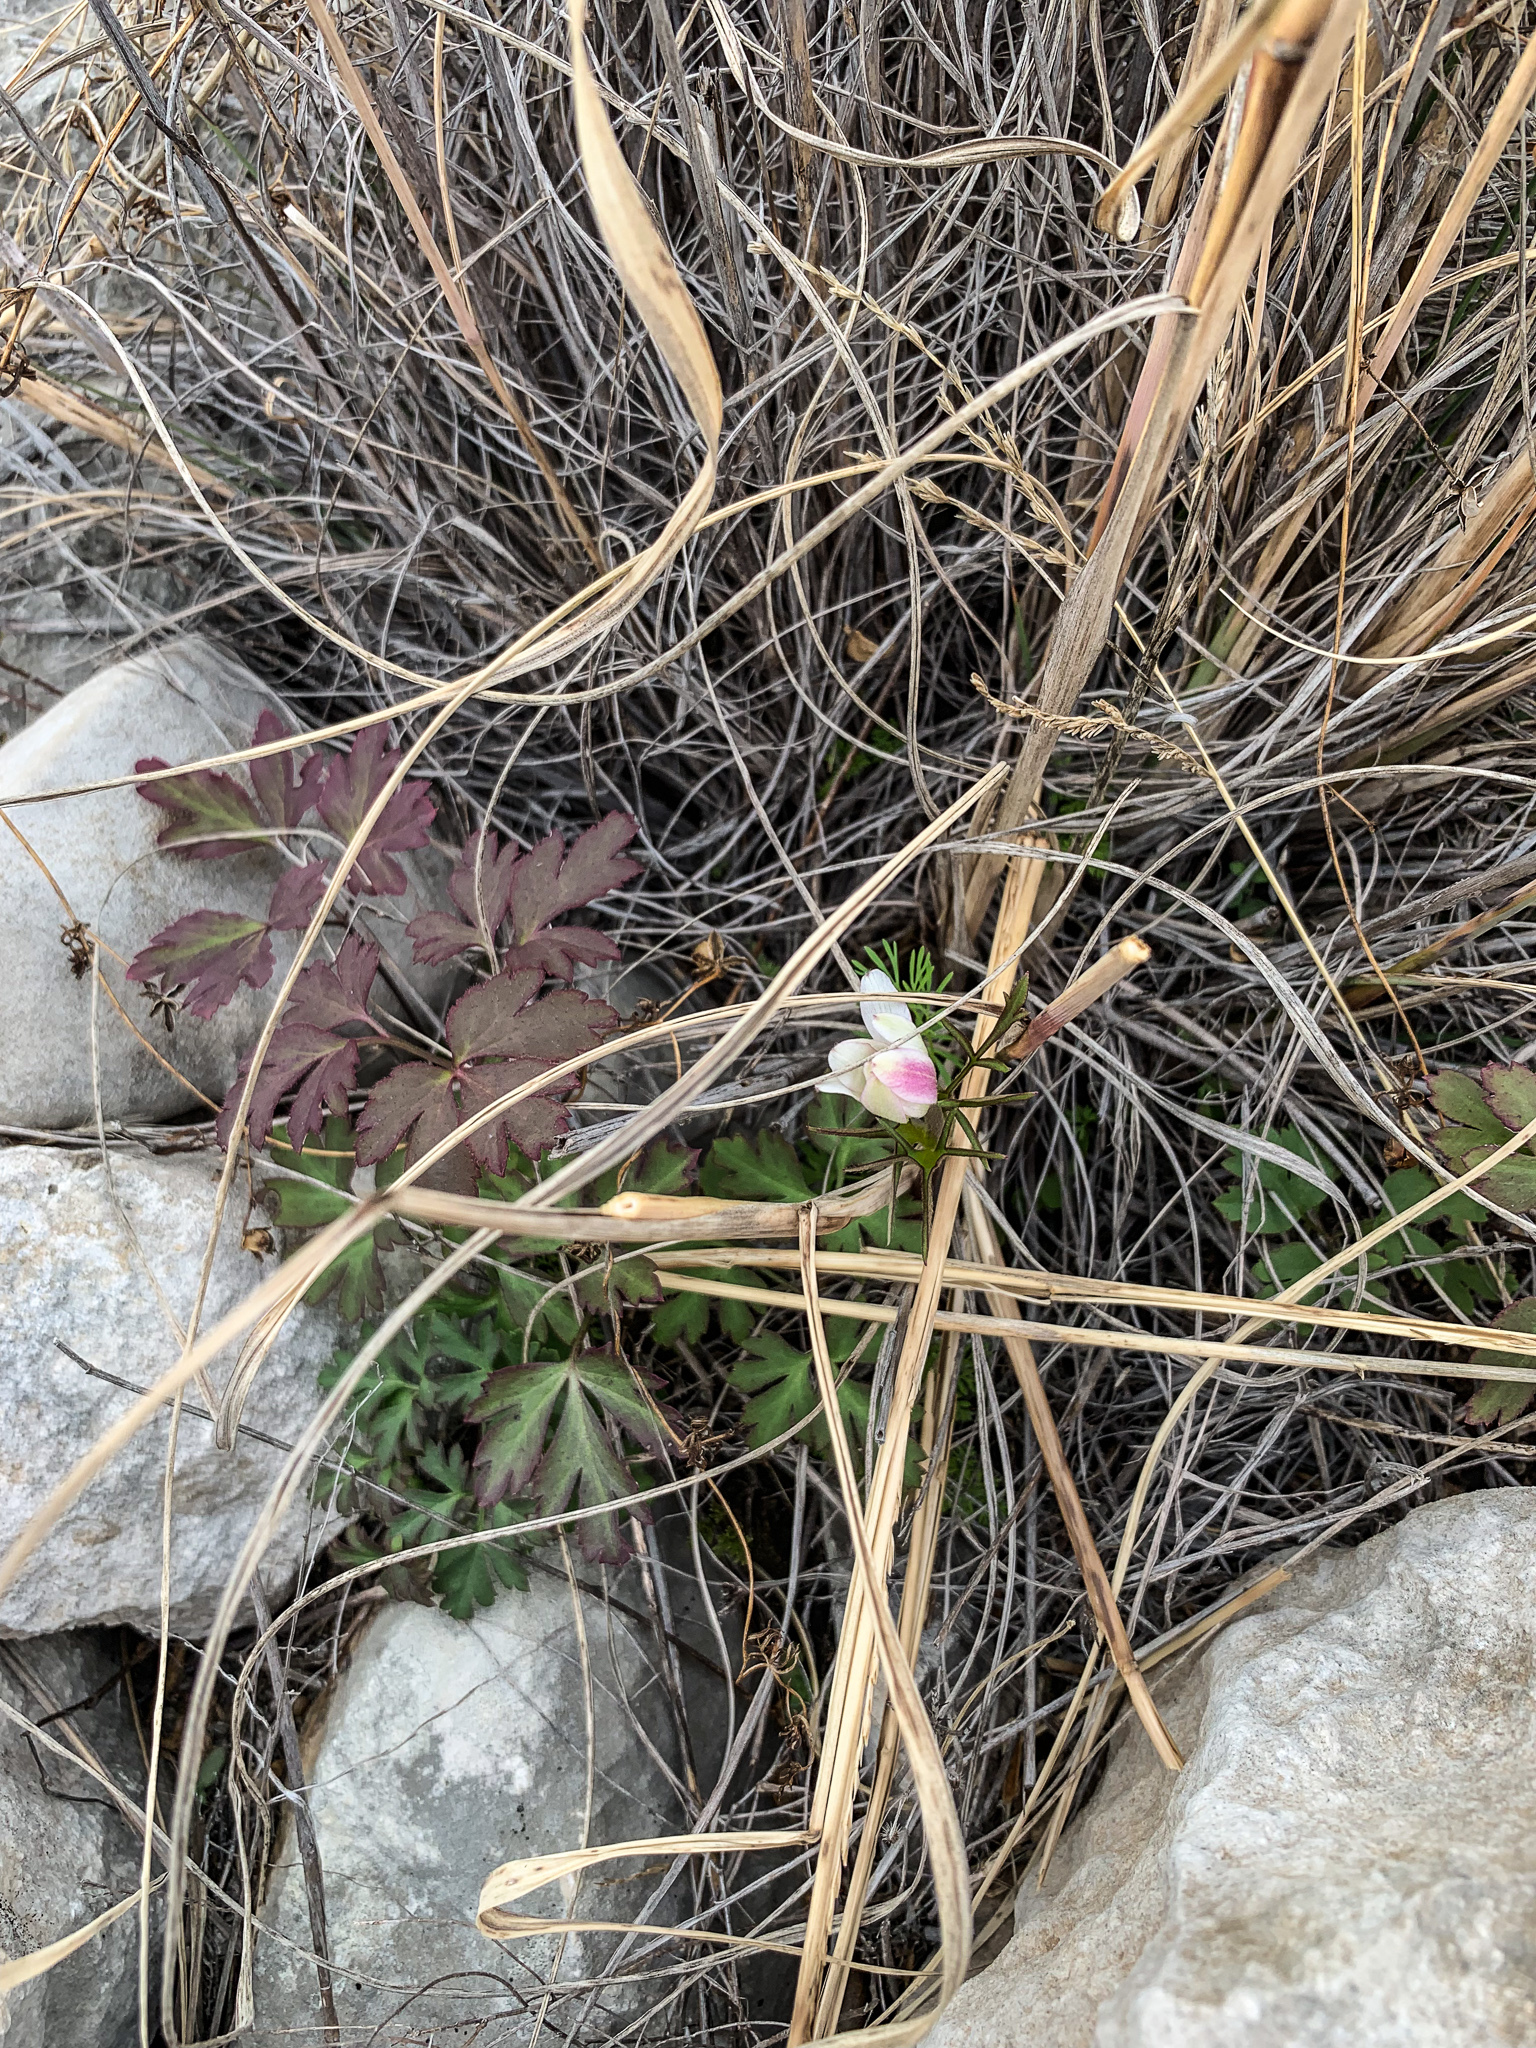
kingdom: Plantae
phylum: Tracheophyta
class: Magnoliopsida
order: Ranunculales
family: Ranunculaceae
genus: Anemone
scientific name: Anemone tuberosa
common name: Desert anemone
